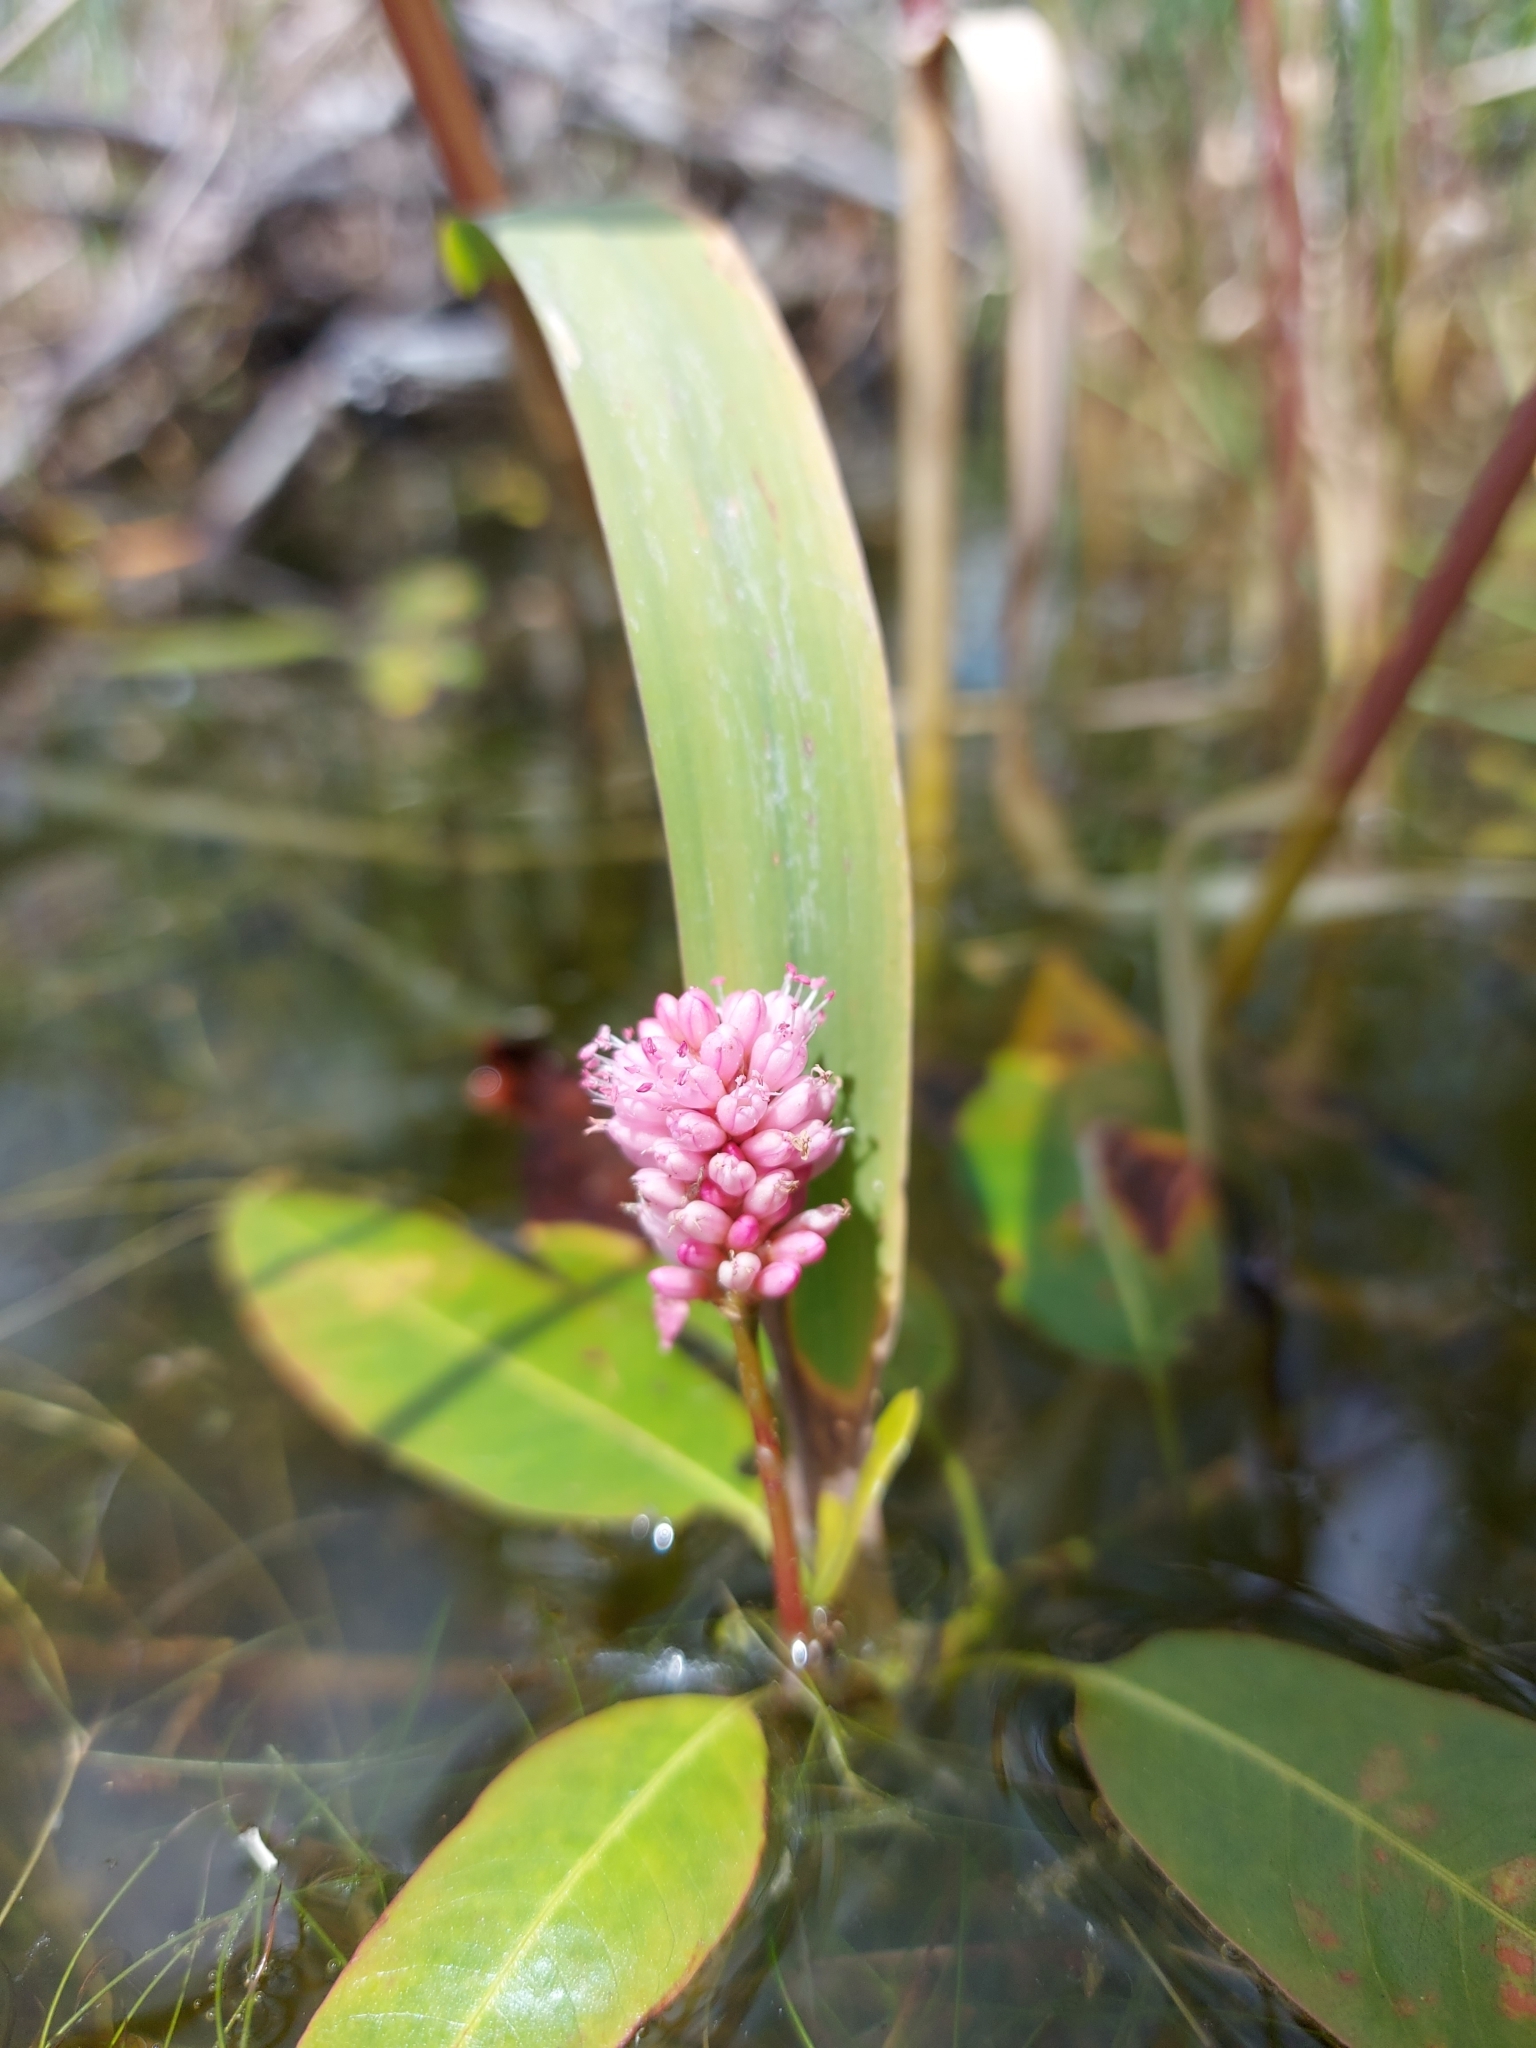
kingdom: Plantae
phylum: Tracheophyta
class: Magnoliopsida
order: Caryophyllales
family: Polygonaceae
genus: Persicaria
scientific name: Persicaria amphibia
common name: Amphibious bistort
